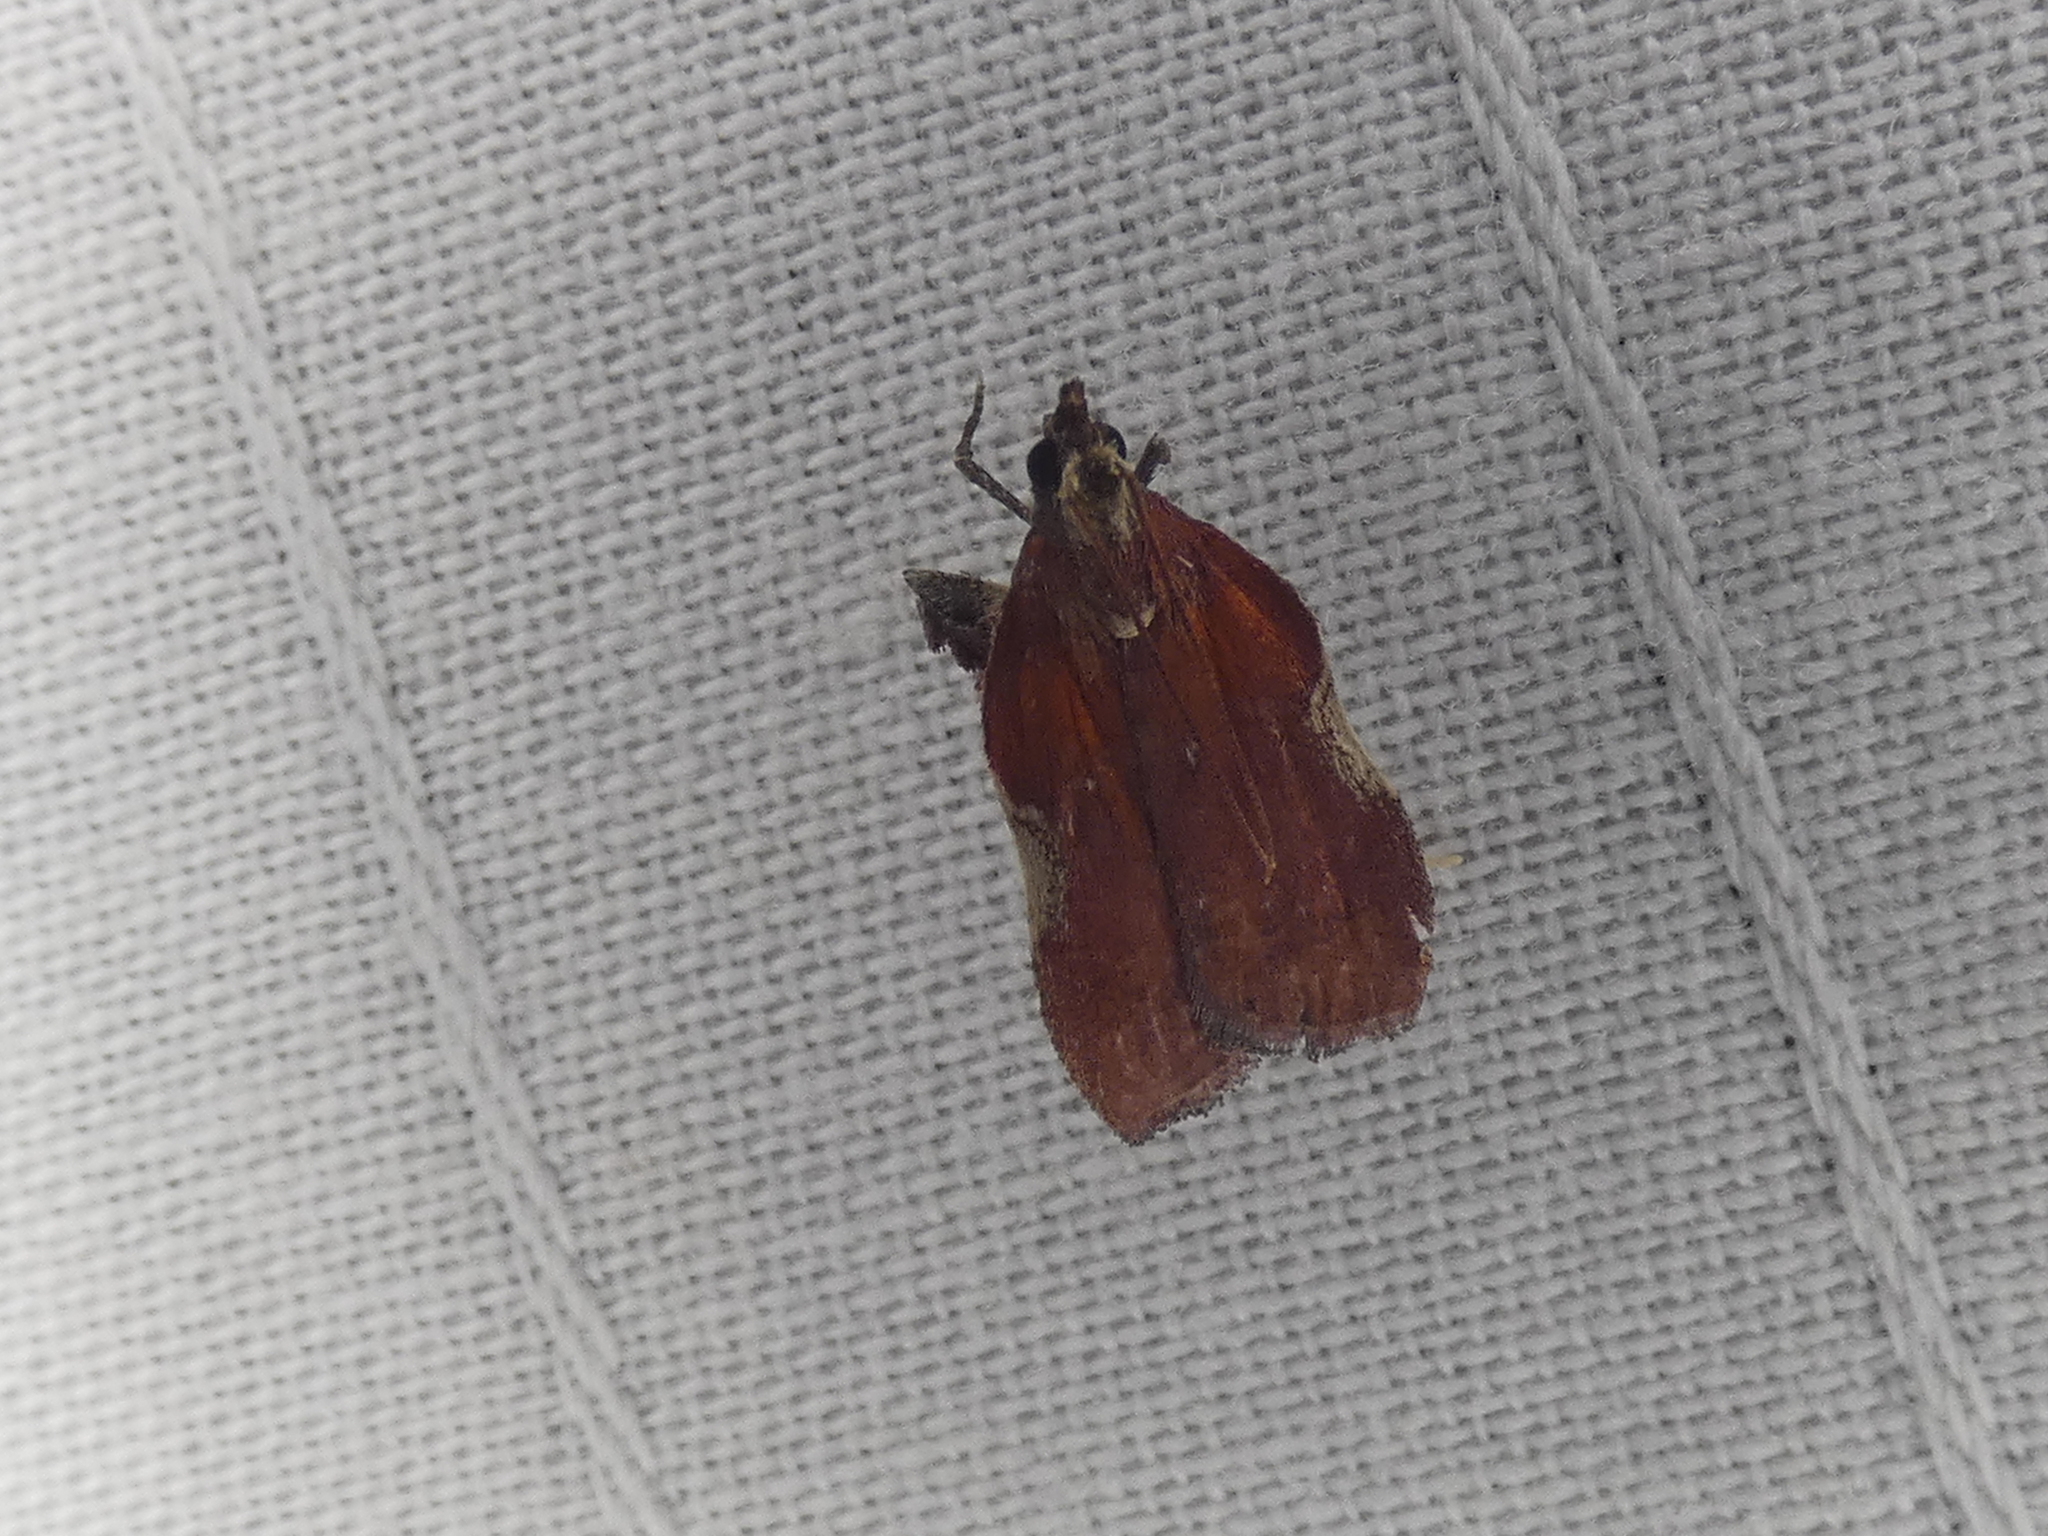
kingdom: Animalia
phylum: Arthropoda
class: Insecta
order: Lepidoptera
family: Pyralidae
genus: Galasa
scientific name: Galasa nigrinodis
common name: Boxwood leaftier moth
